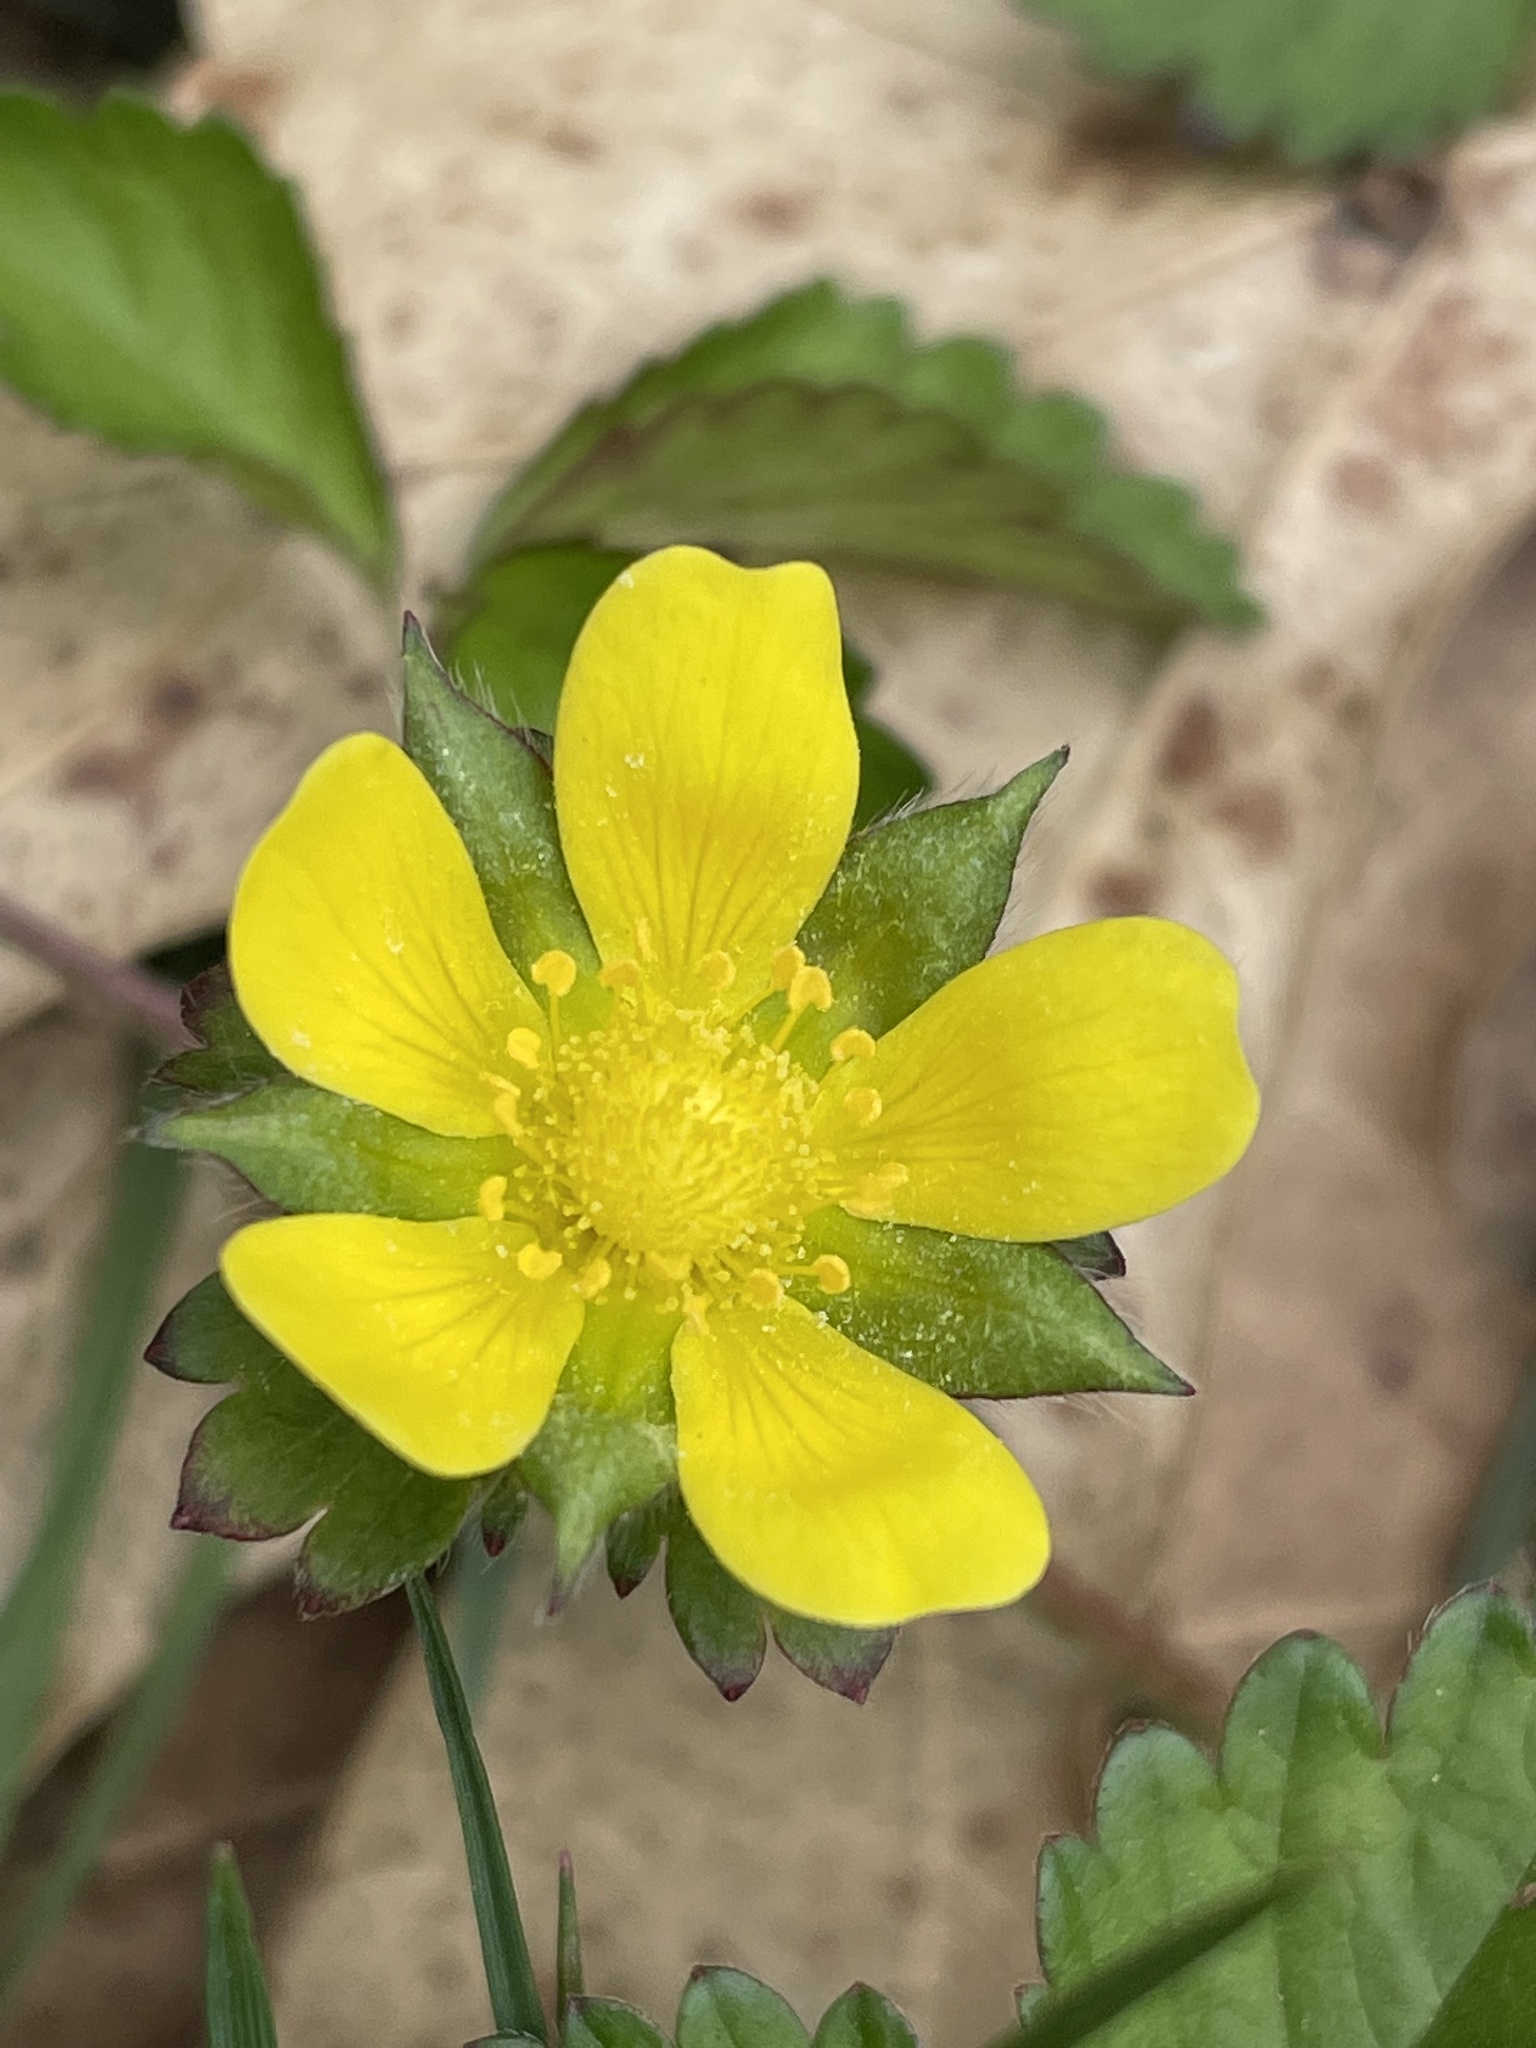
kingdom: Plantae
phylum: Tracheophyta
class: Magnoliopsida
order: Rosales
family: Rosaceae
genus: Potentilla
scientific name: Potentilla indica
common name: Yellow-flowered strawberry
